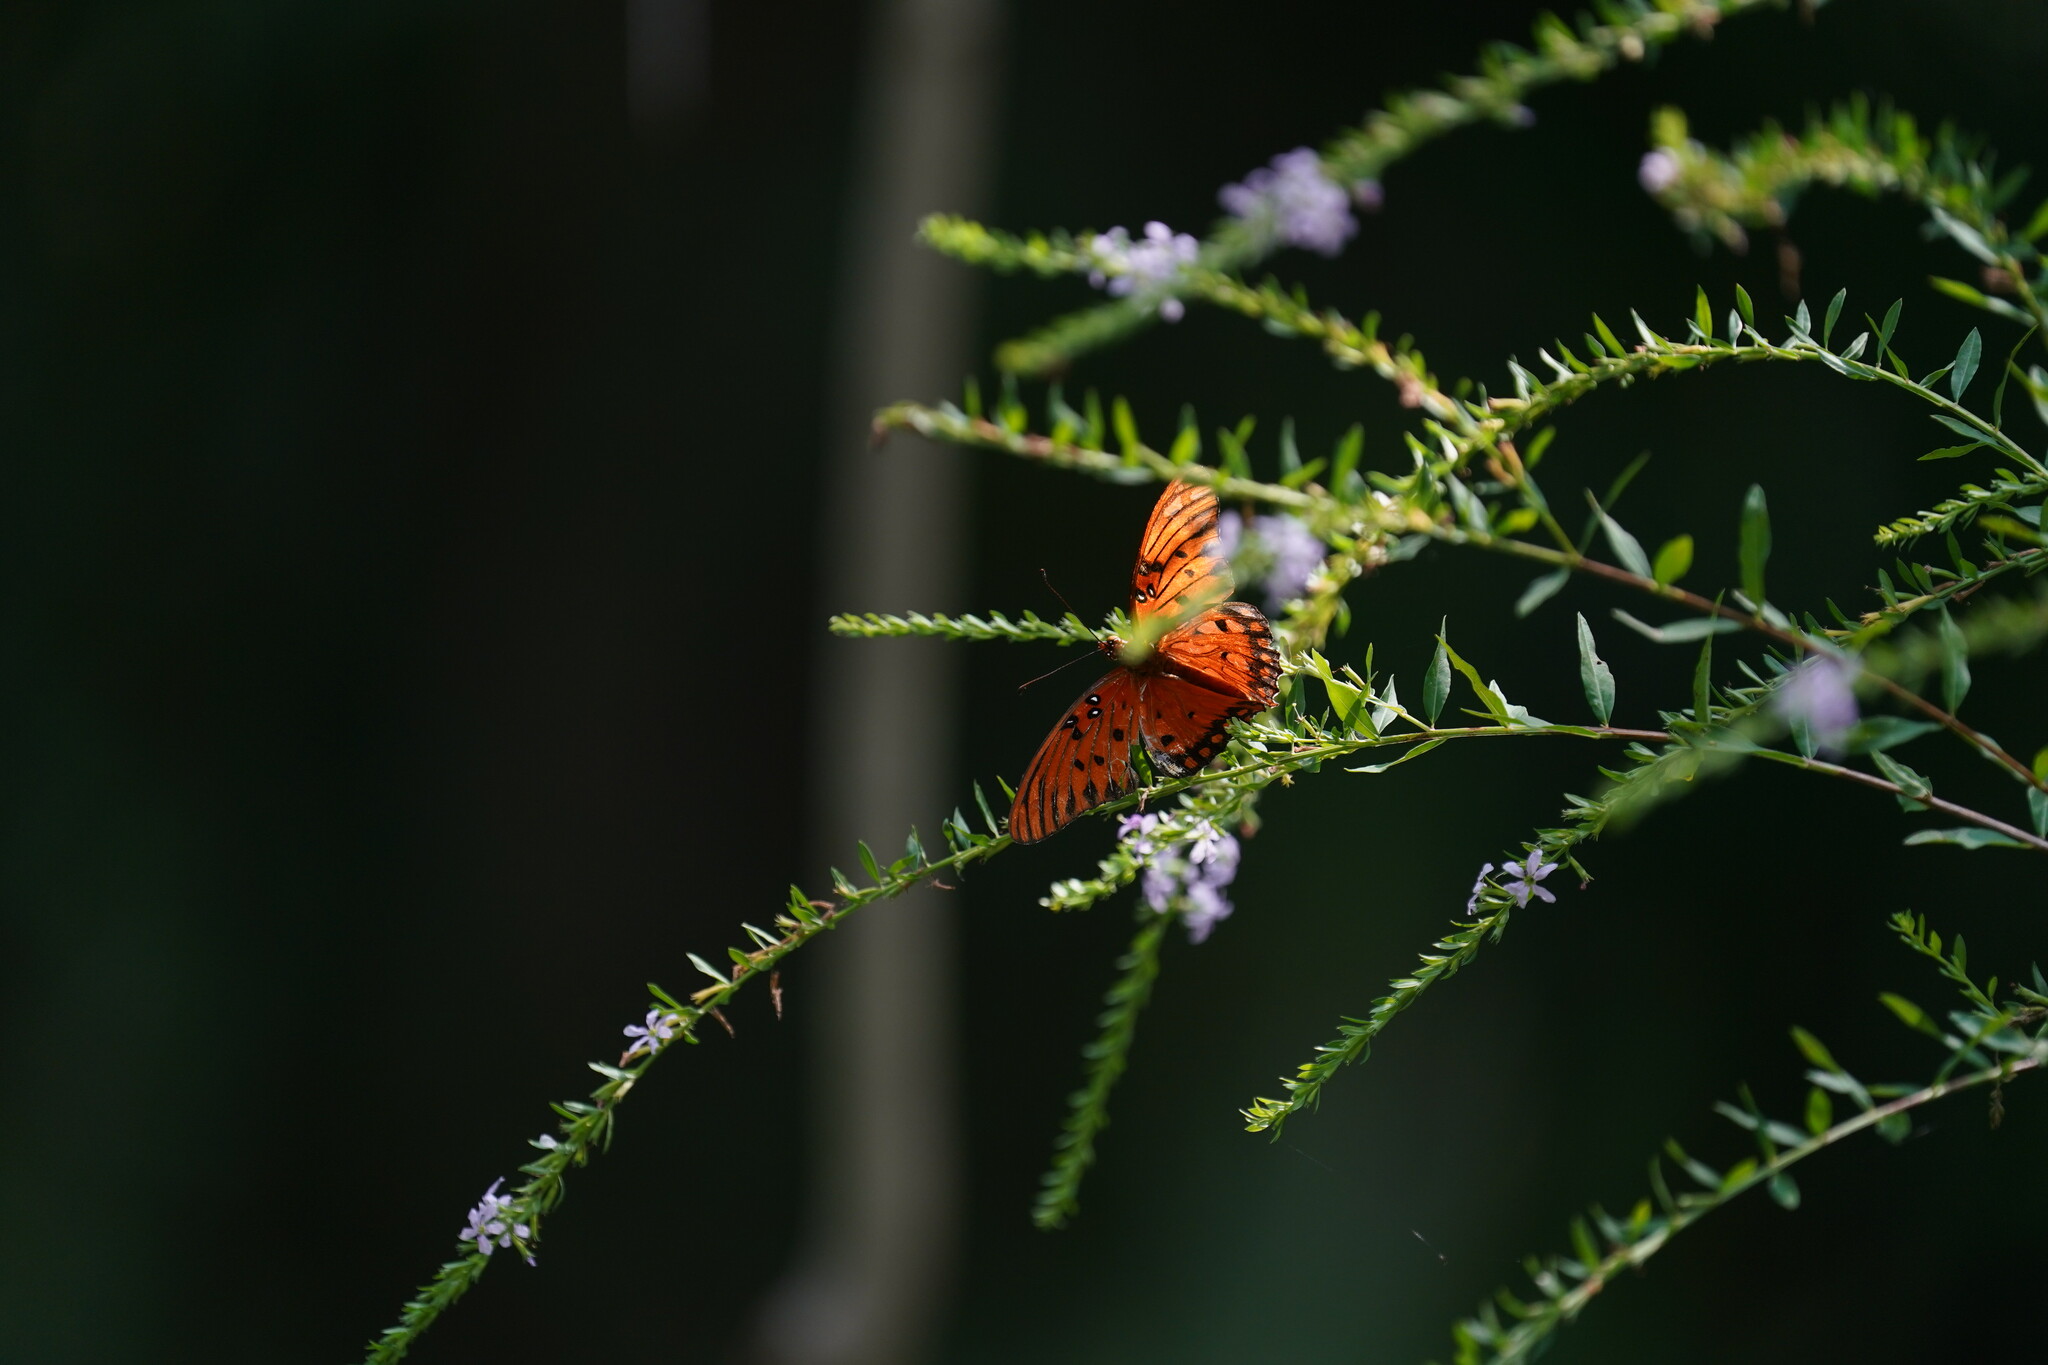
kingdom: Animalia
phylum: Arthropoda
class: Insecta
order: Lepidoptera
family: Nymphalidae
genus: Dione
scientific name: Dione vanillae
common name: Gulf fritillary
